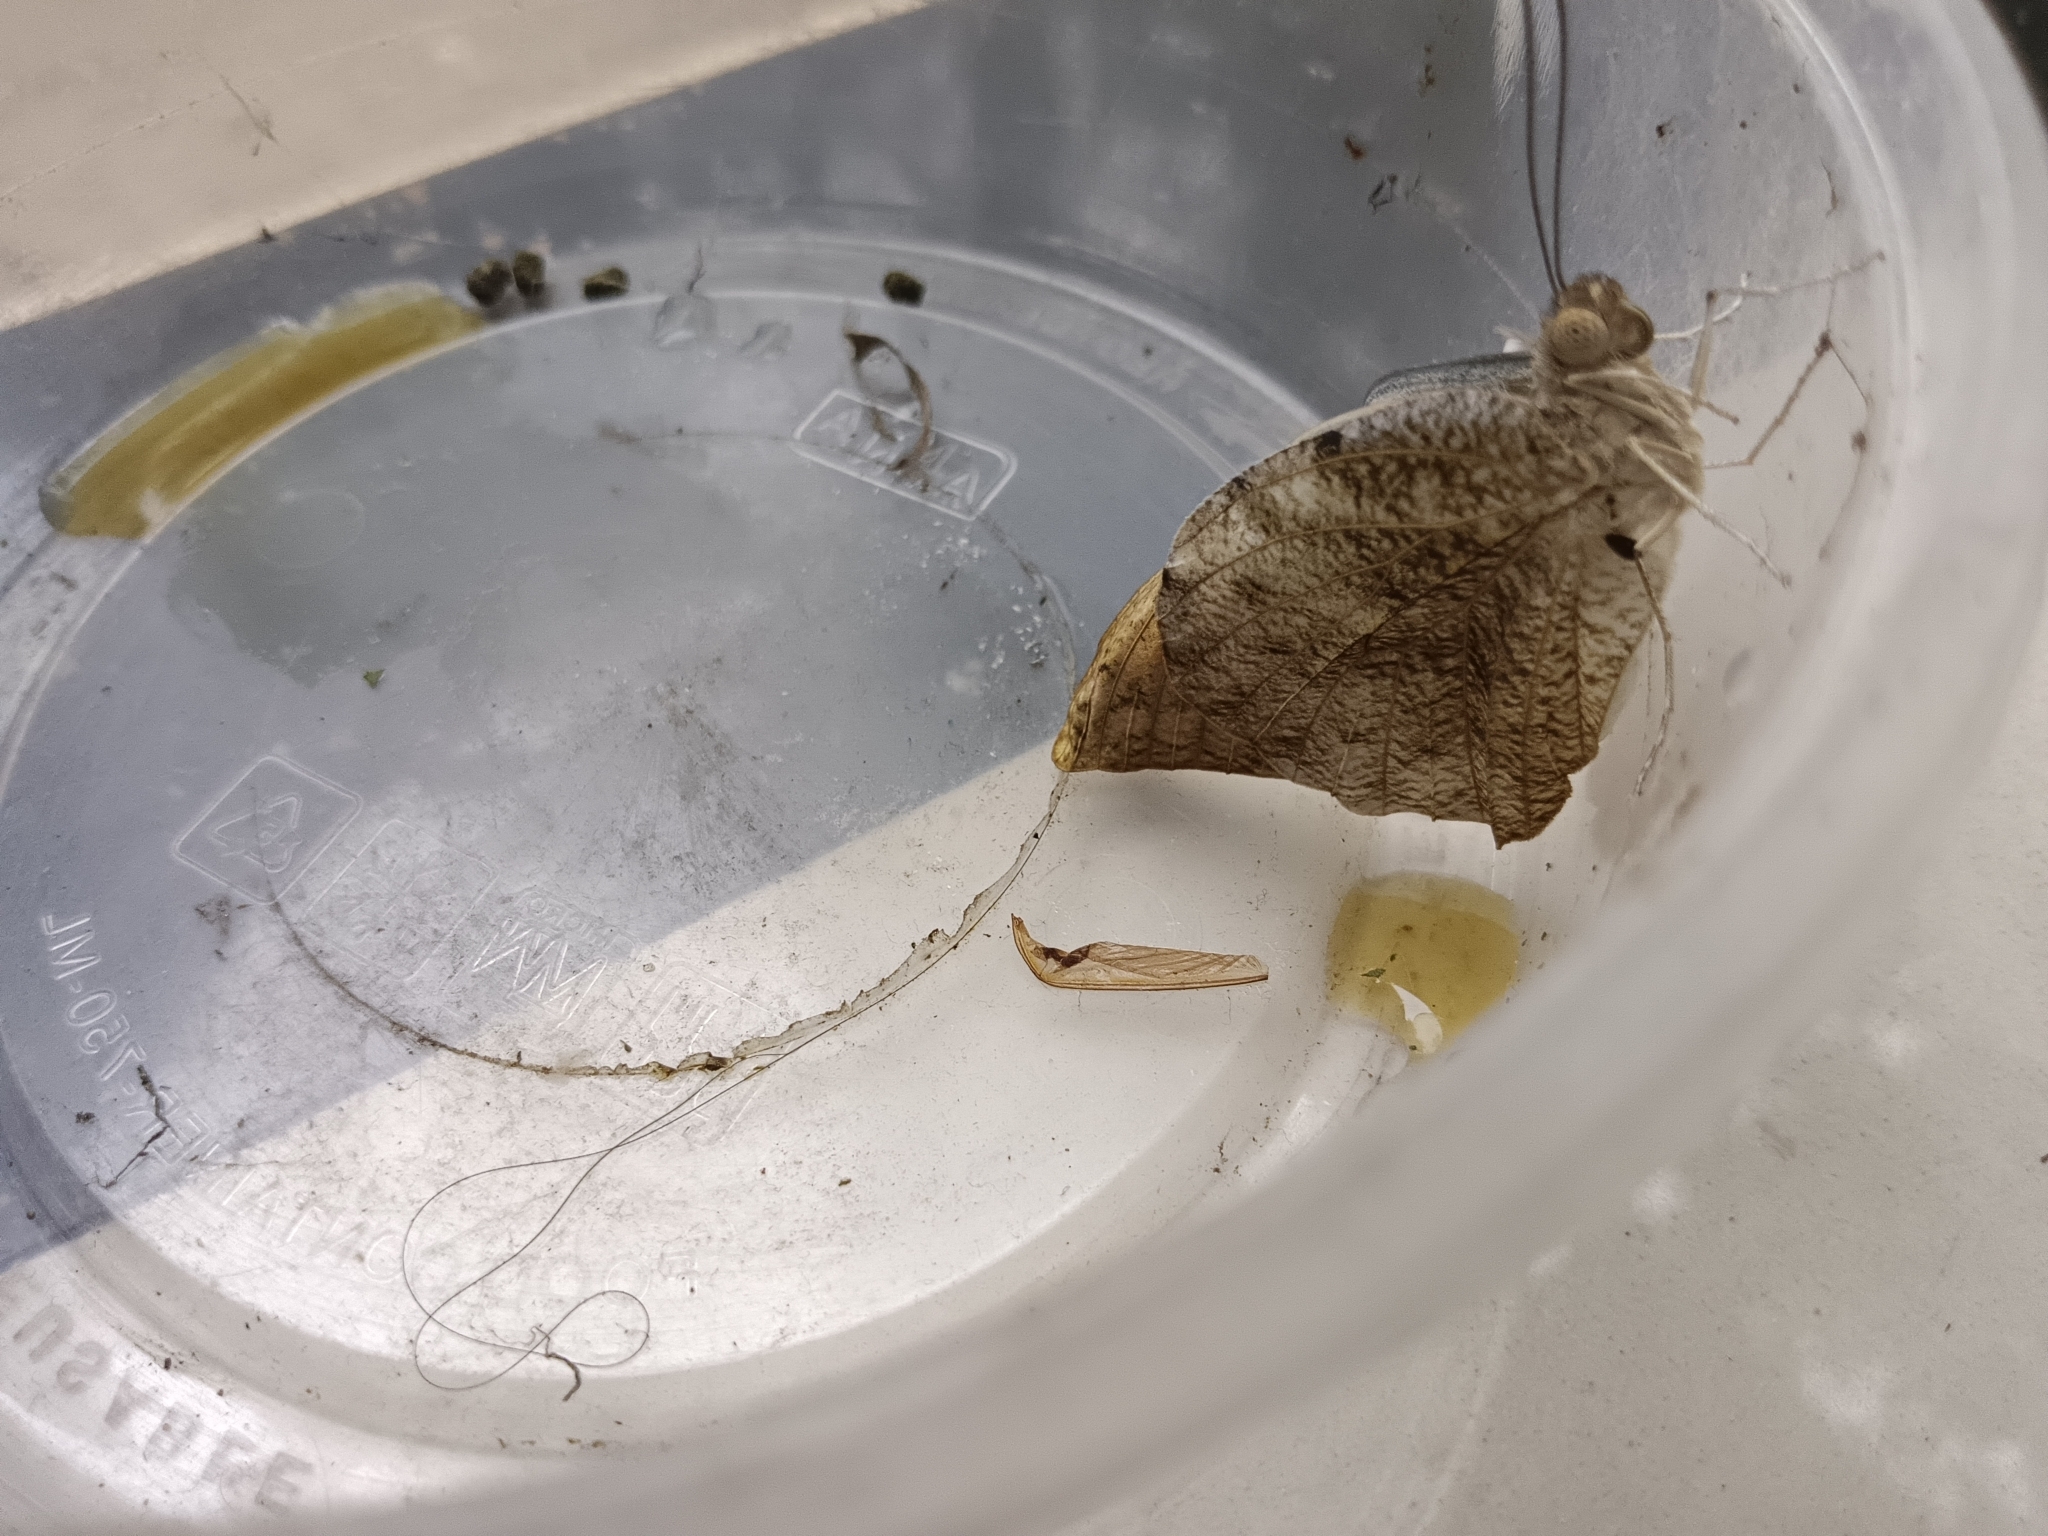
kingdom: Animalia
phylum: Arthropoda
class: Insecta
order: Lepidoptera
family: Pieridae
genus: Hebomoia
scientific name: Hebomoia glaucippe
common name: Great orange tip
